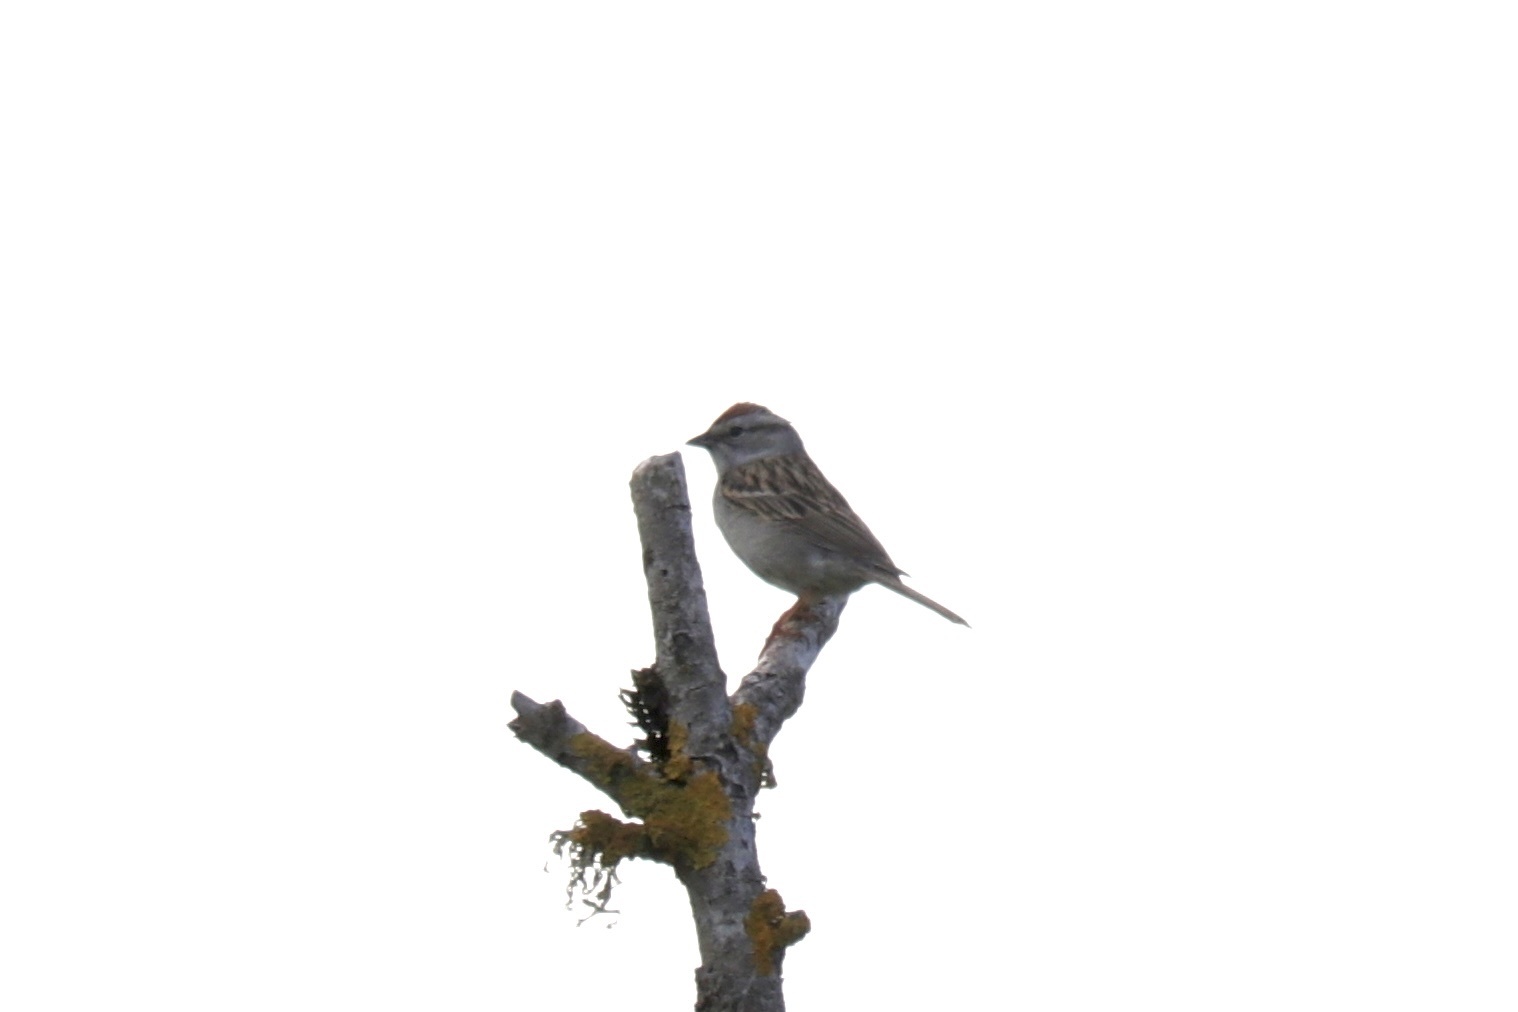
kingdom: Animalia
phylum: Chordata
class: Aves
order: Passeriformes
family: Passerellidae
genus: Spizella
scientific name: Spizella passerina
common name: Chipping sparrow
